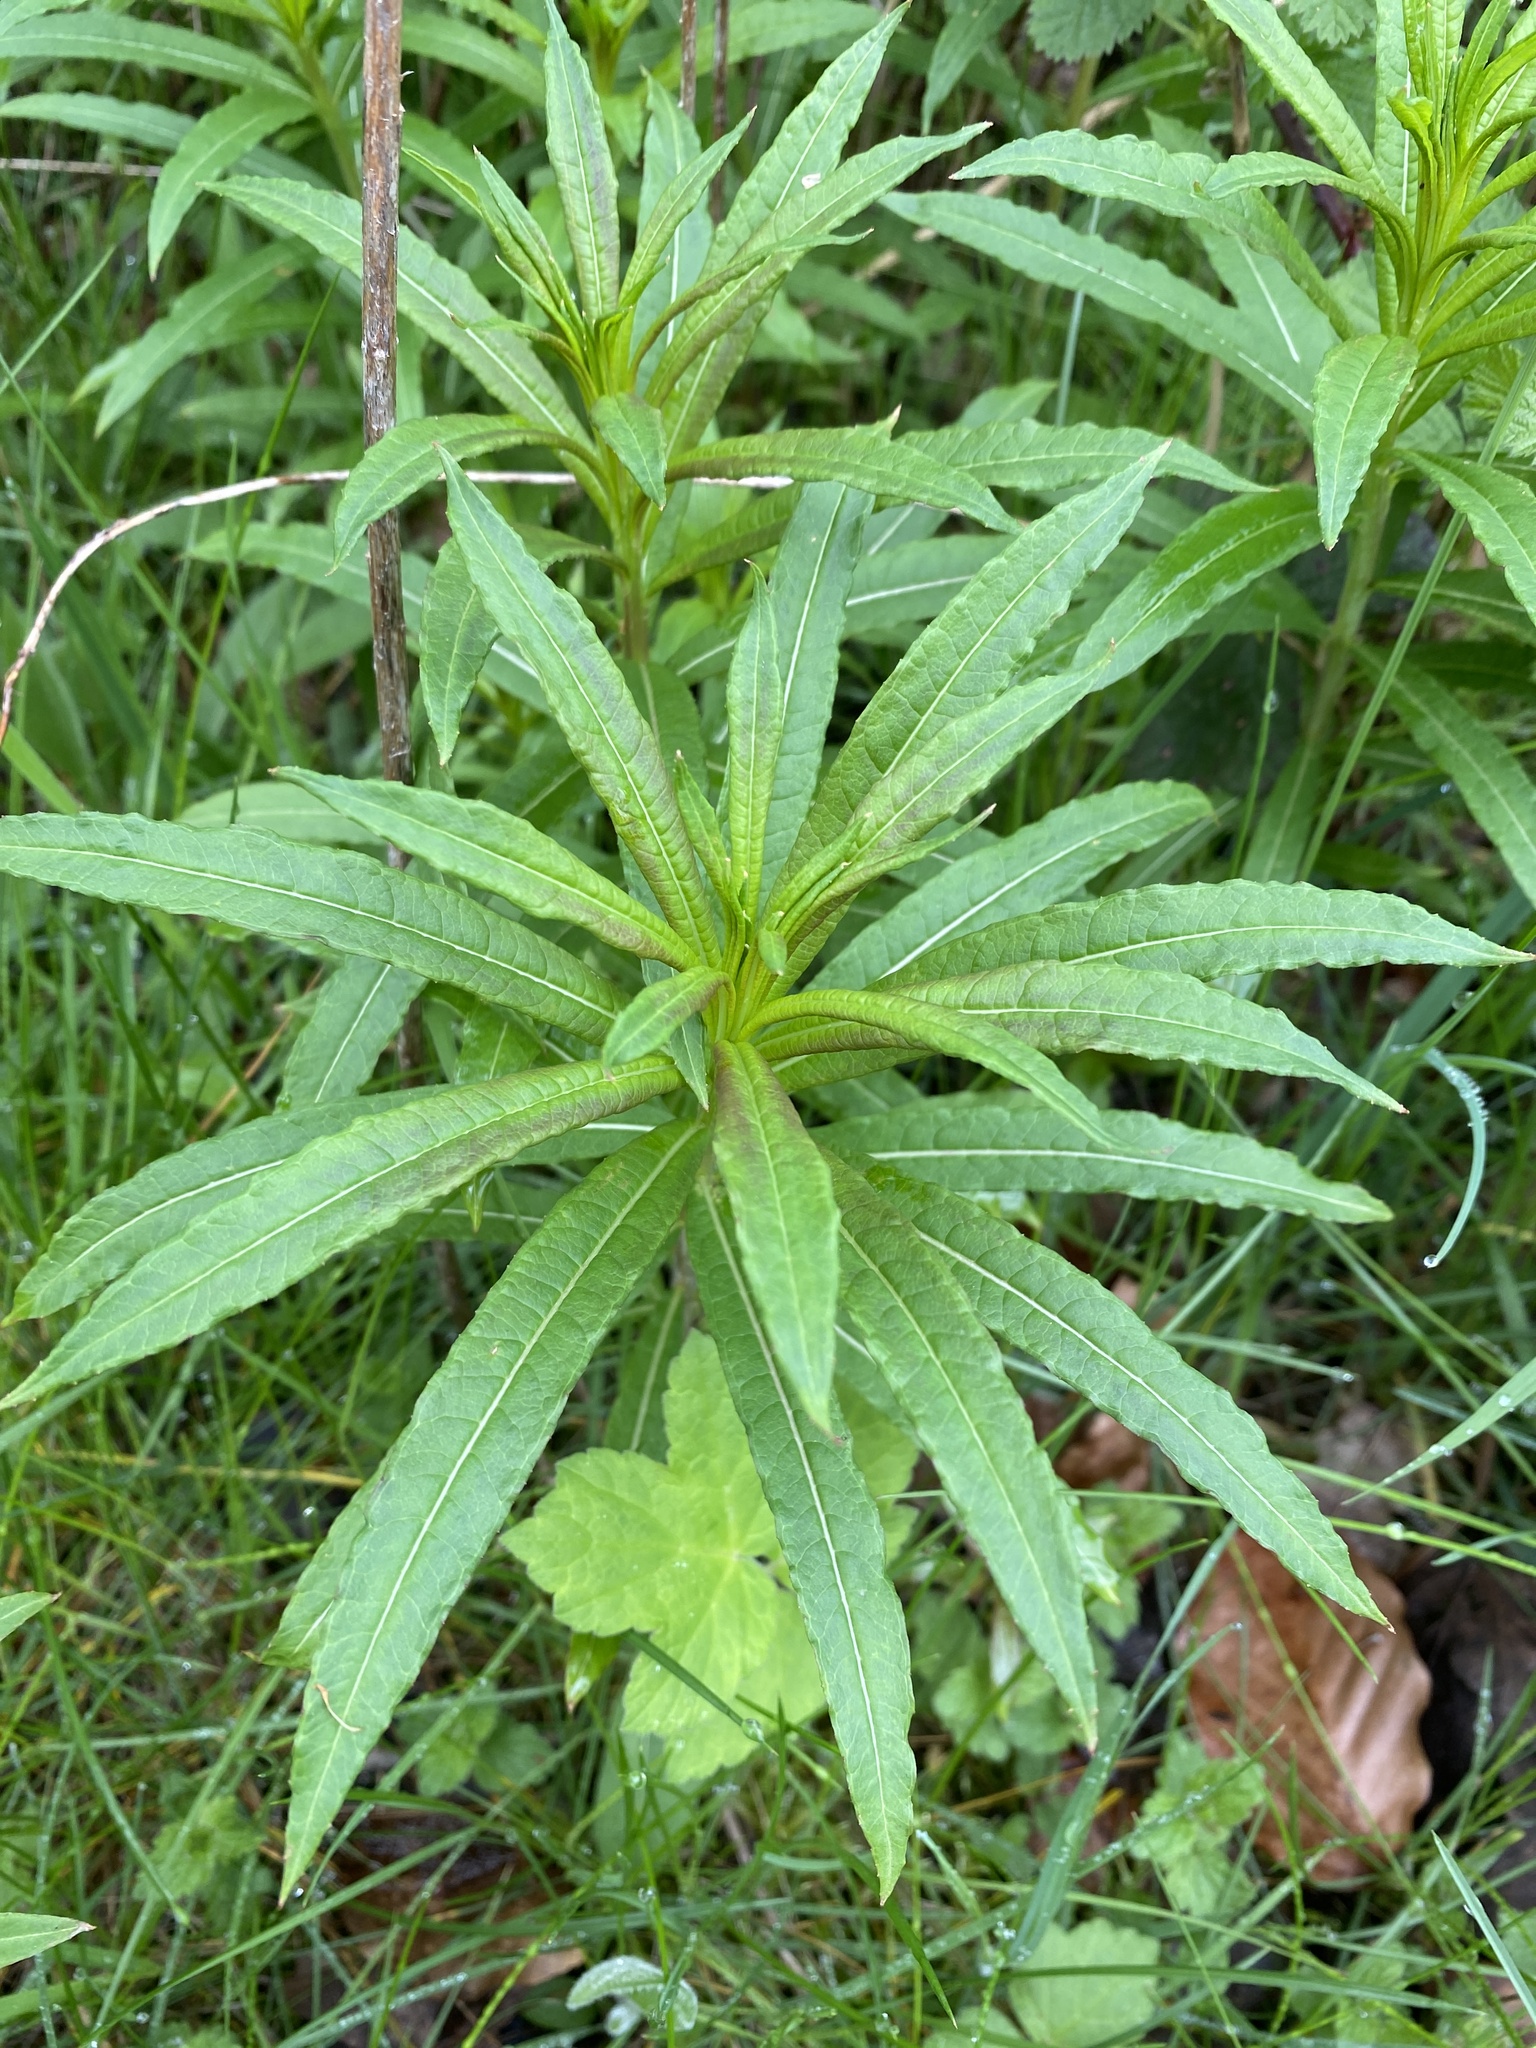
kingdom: Plantae
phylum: Tracheophyta
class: Magnoliopsida
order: Myrtales
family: Onagraceae
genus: Chamaenerion
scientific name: Chamaenerion angustifolium
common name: Fireweed
